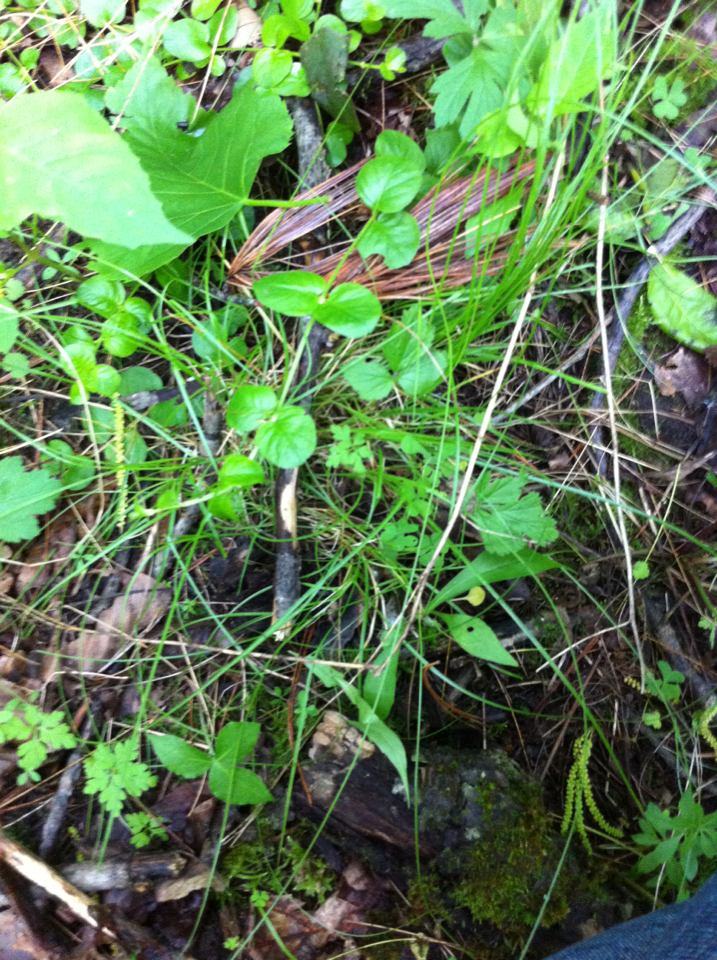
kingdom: Plantae
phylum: Tracheophyta
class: Liliopsida
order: Poales
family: Cyperaceae
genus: Carex
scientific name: Carex radiata
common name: Eastern star sedge
